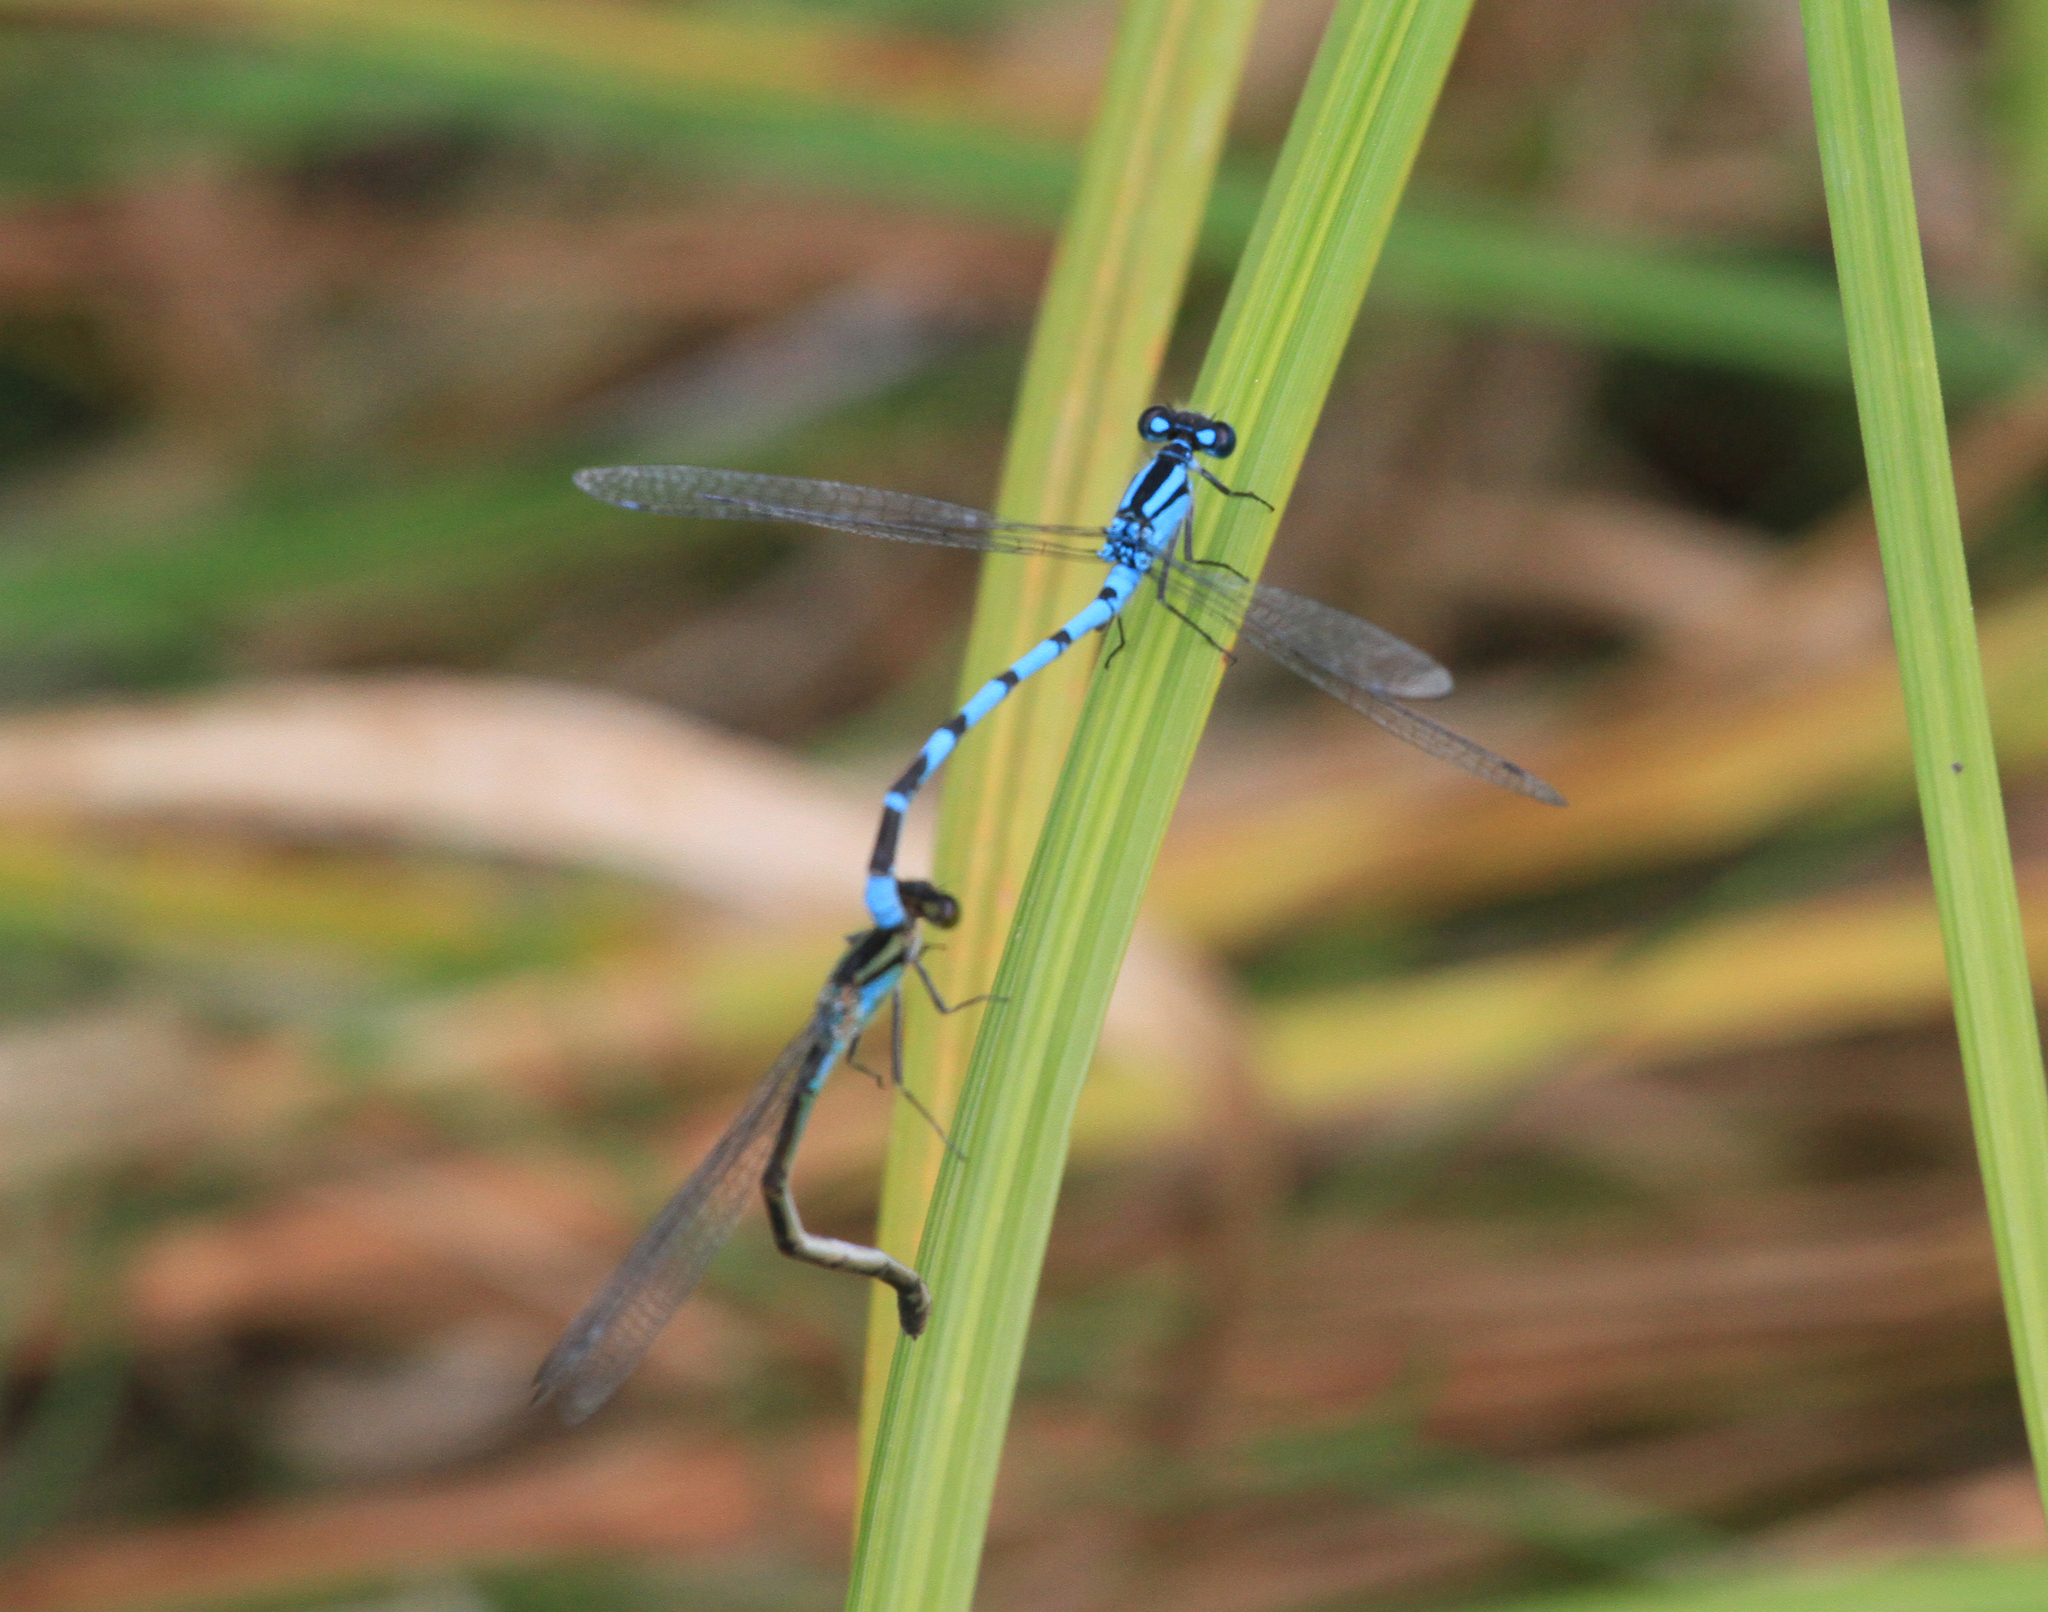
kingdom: Animalia
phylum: Arthropoda
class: Insecta
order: Odonata
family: Coenagrionidae
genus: Enallagma
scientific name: Enallagma cyathigerum
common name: Common blue damselfly
